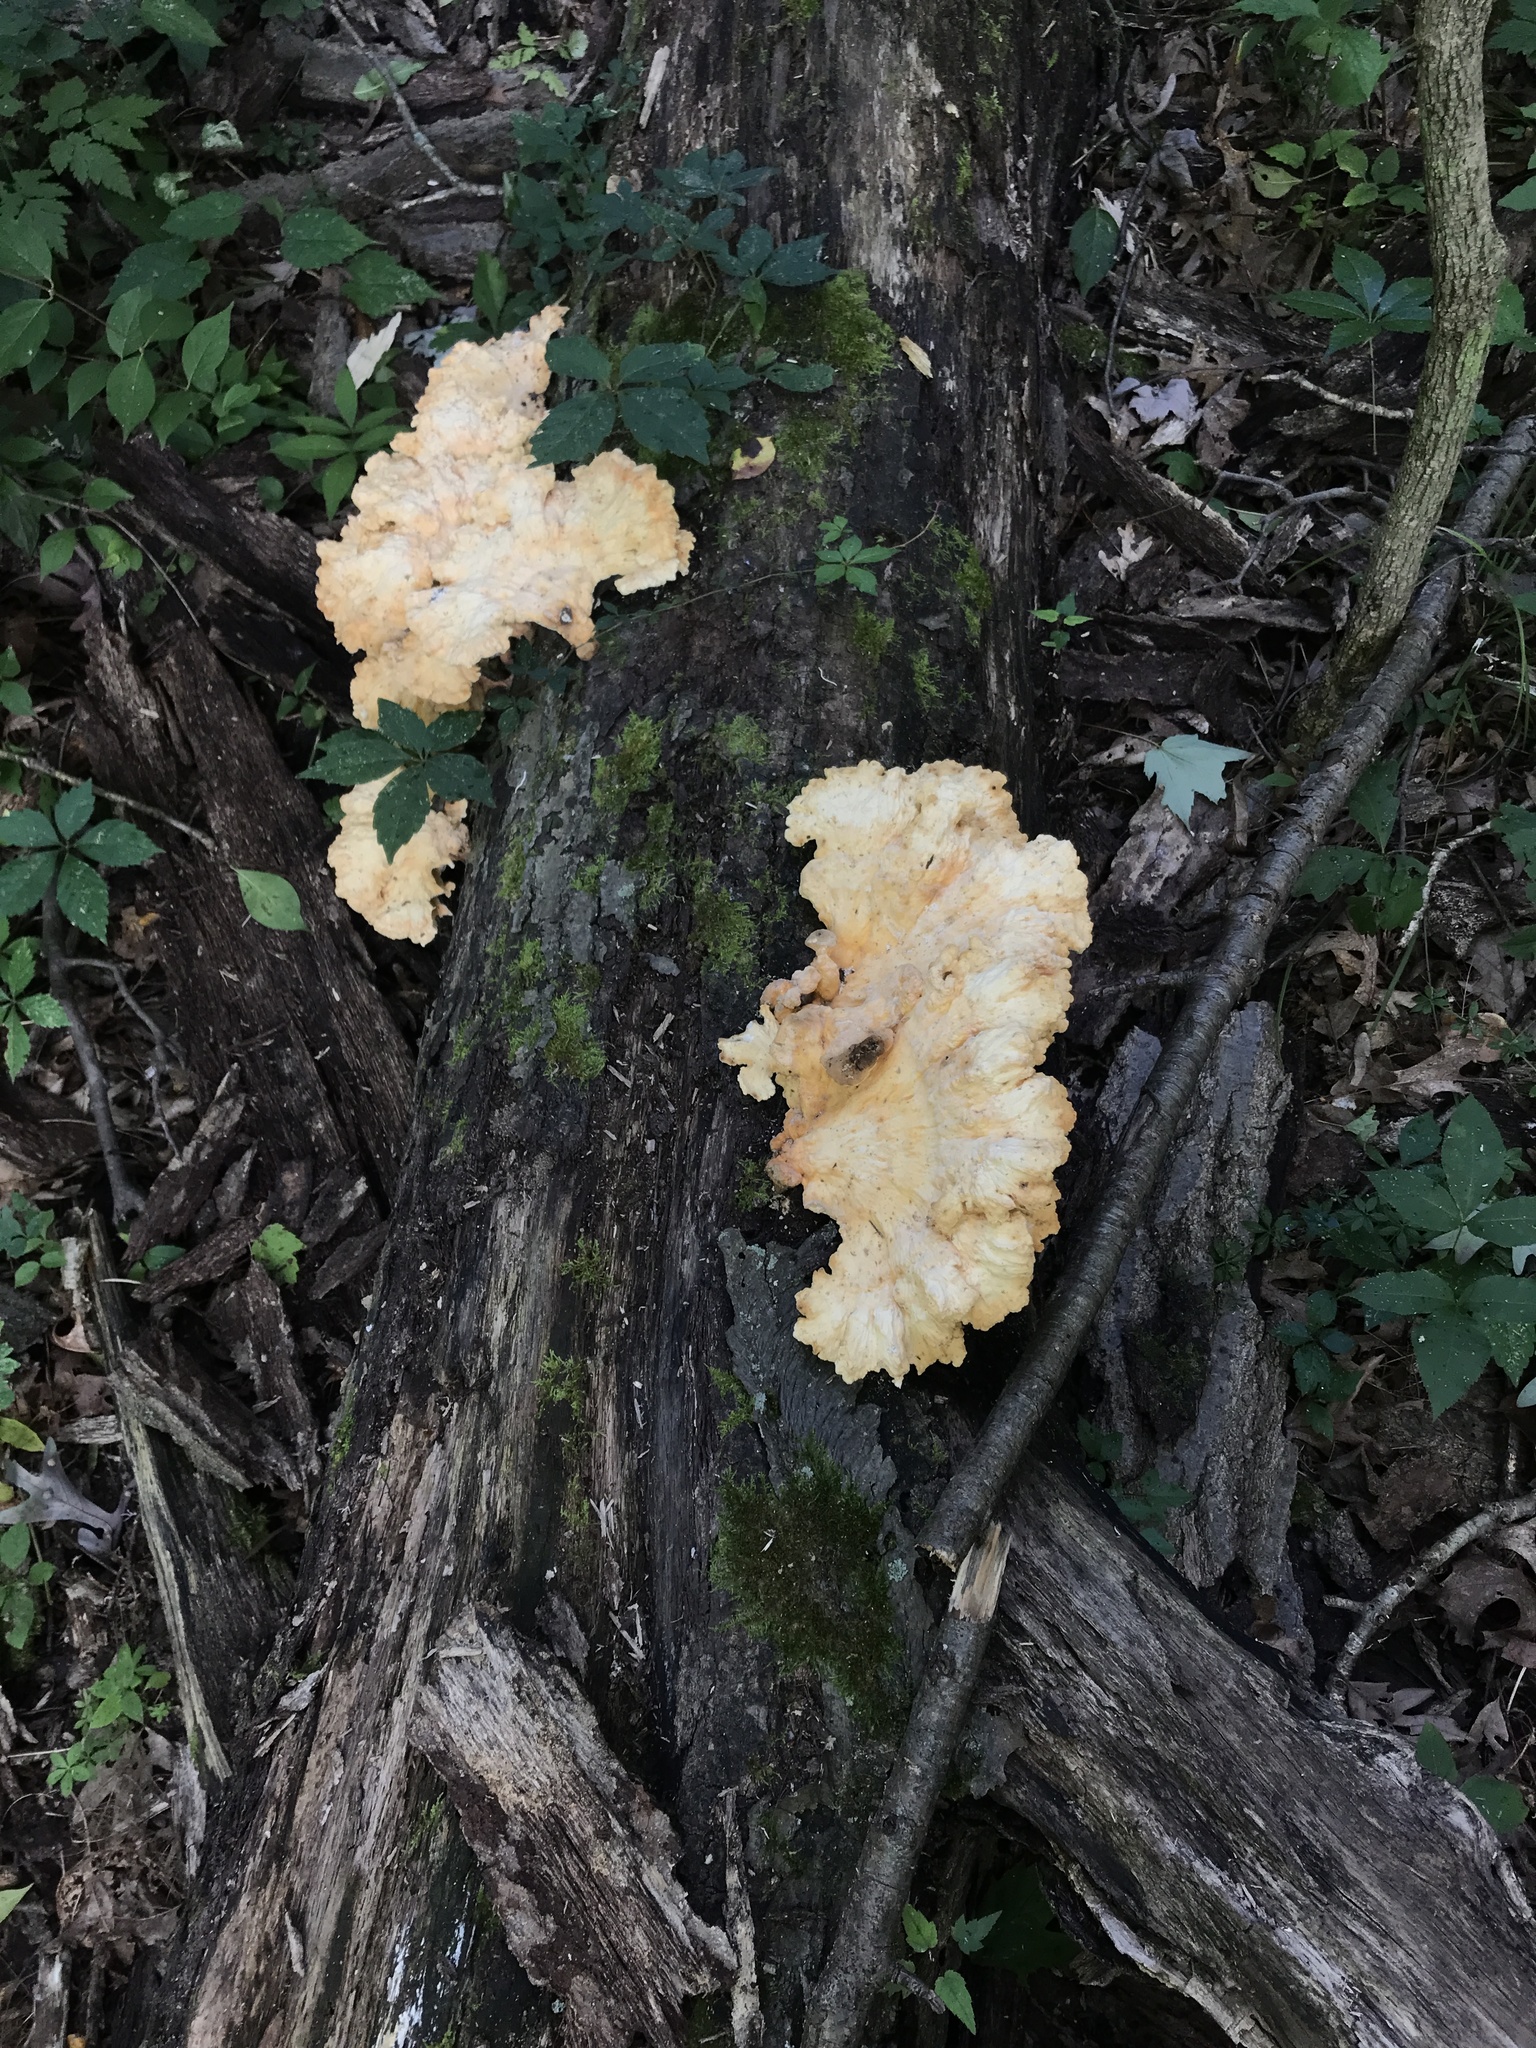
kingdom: Fungi
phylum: Basidiomycota
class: Agaricomycetes
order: Polyporales
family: Laetiporaceae
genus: Laetiporus
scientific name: Laetiporus sulphureus
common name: Chicken of the woods
